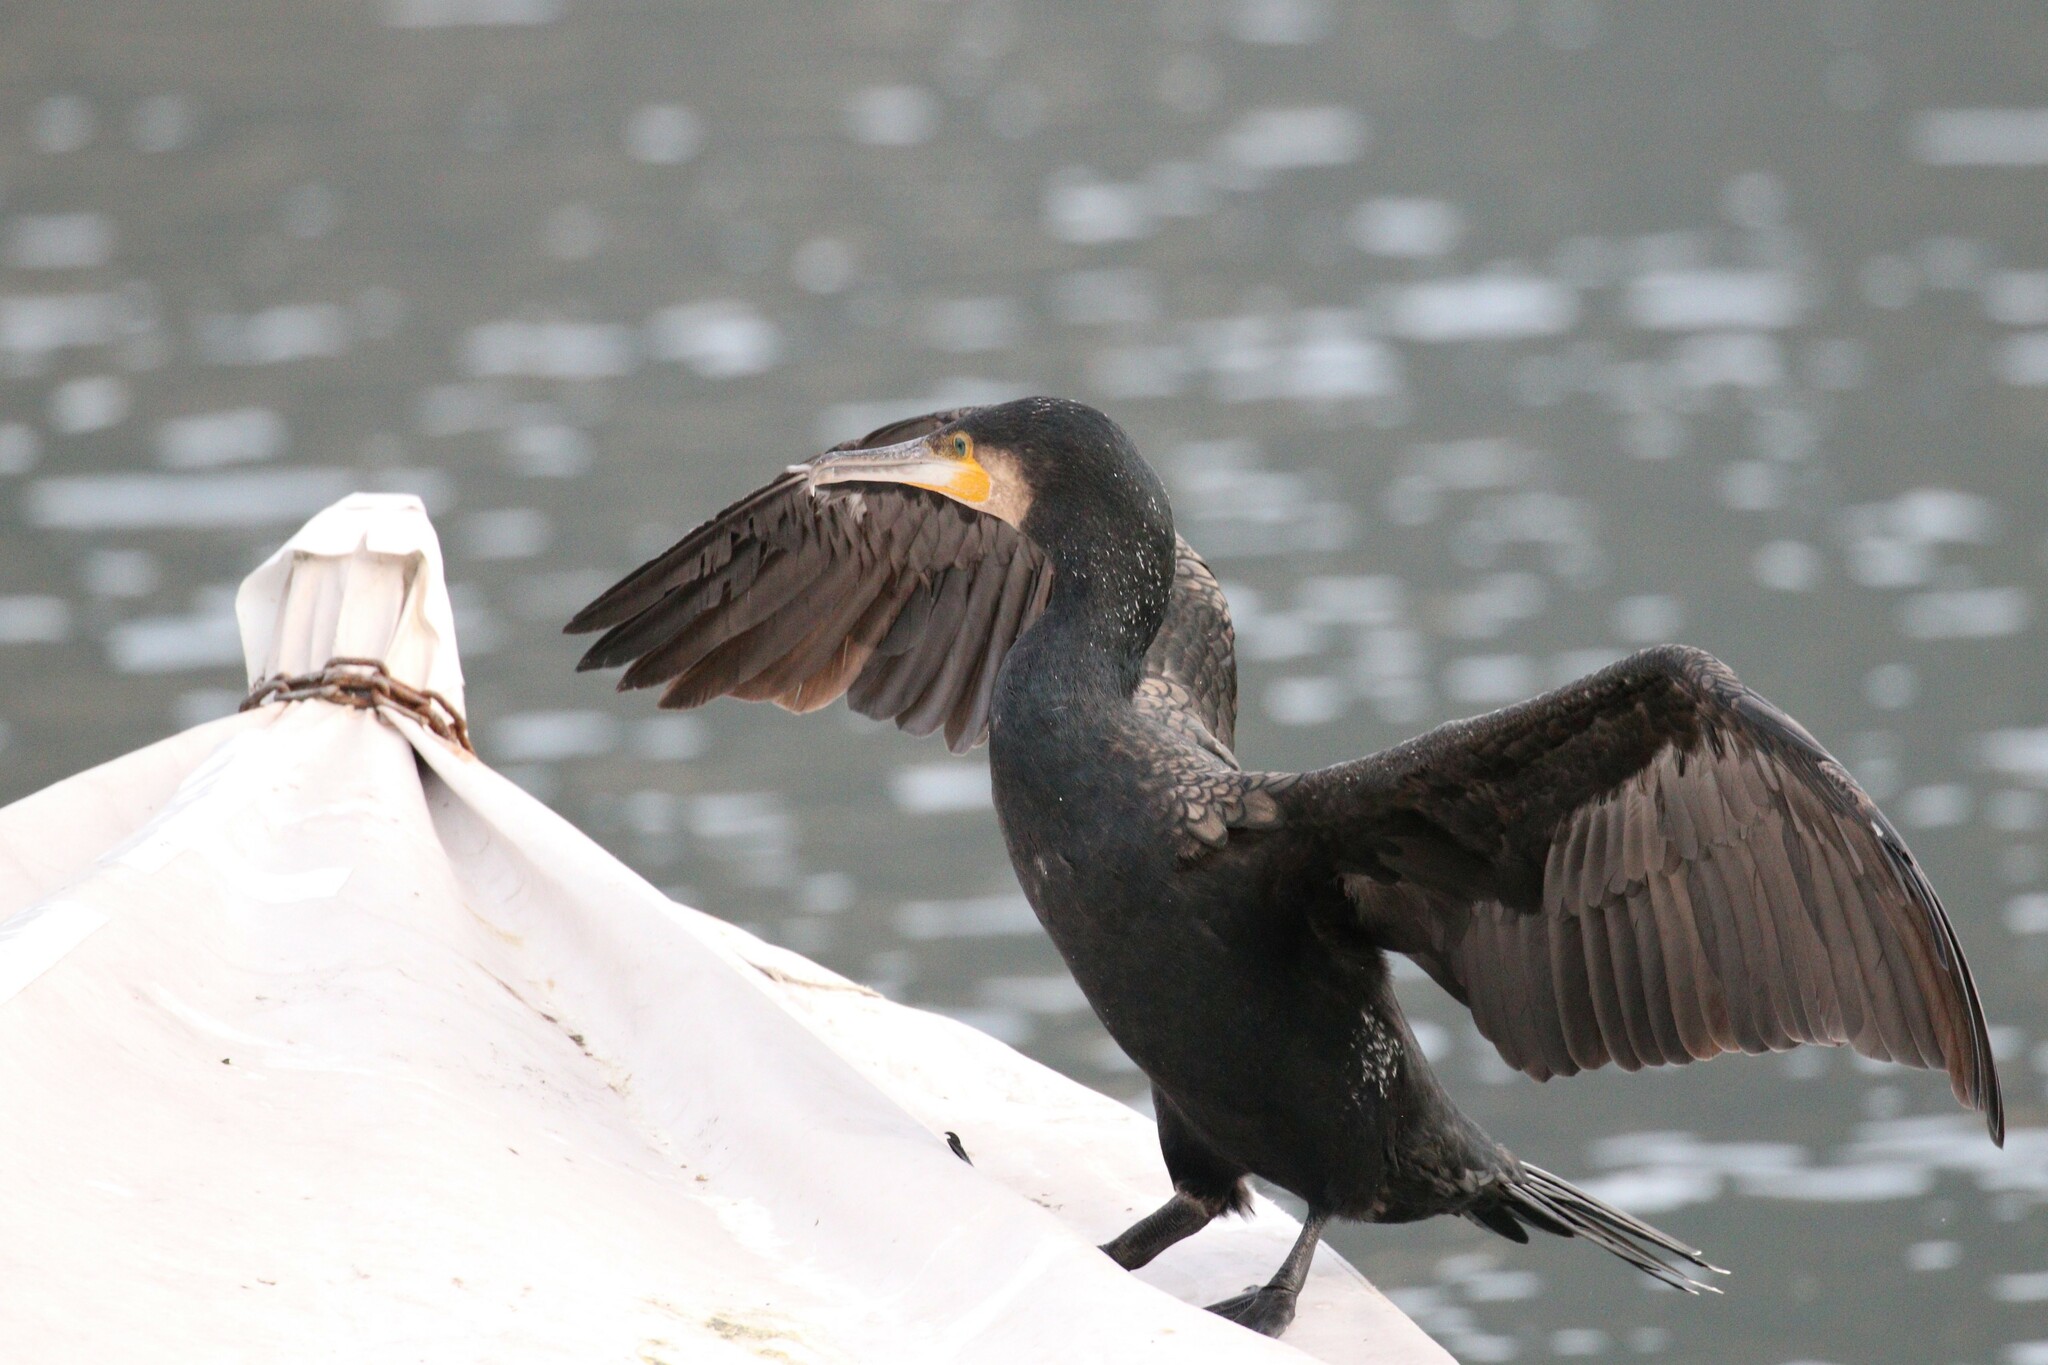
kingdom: Animalia
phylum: Chordata
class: Aves
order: Suliformes
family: Phalacrocoracidae
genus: Phalacrocorax
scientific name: Phalacrocorax carbo
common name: Great cormorant
